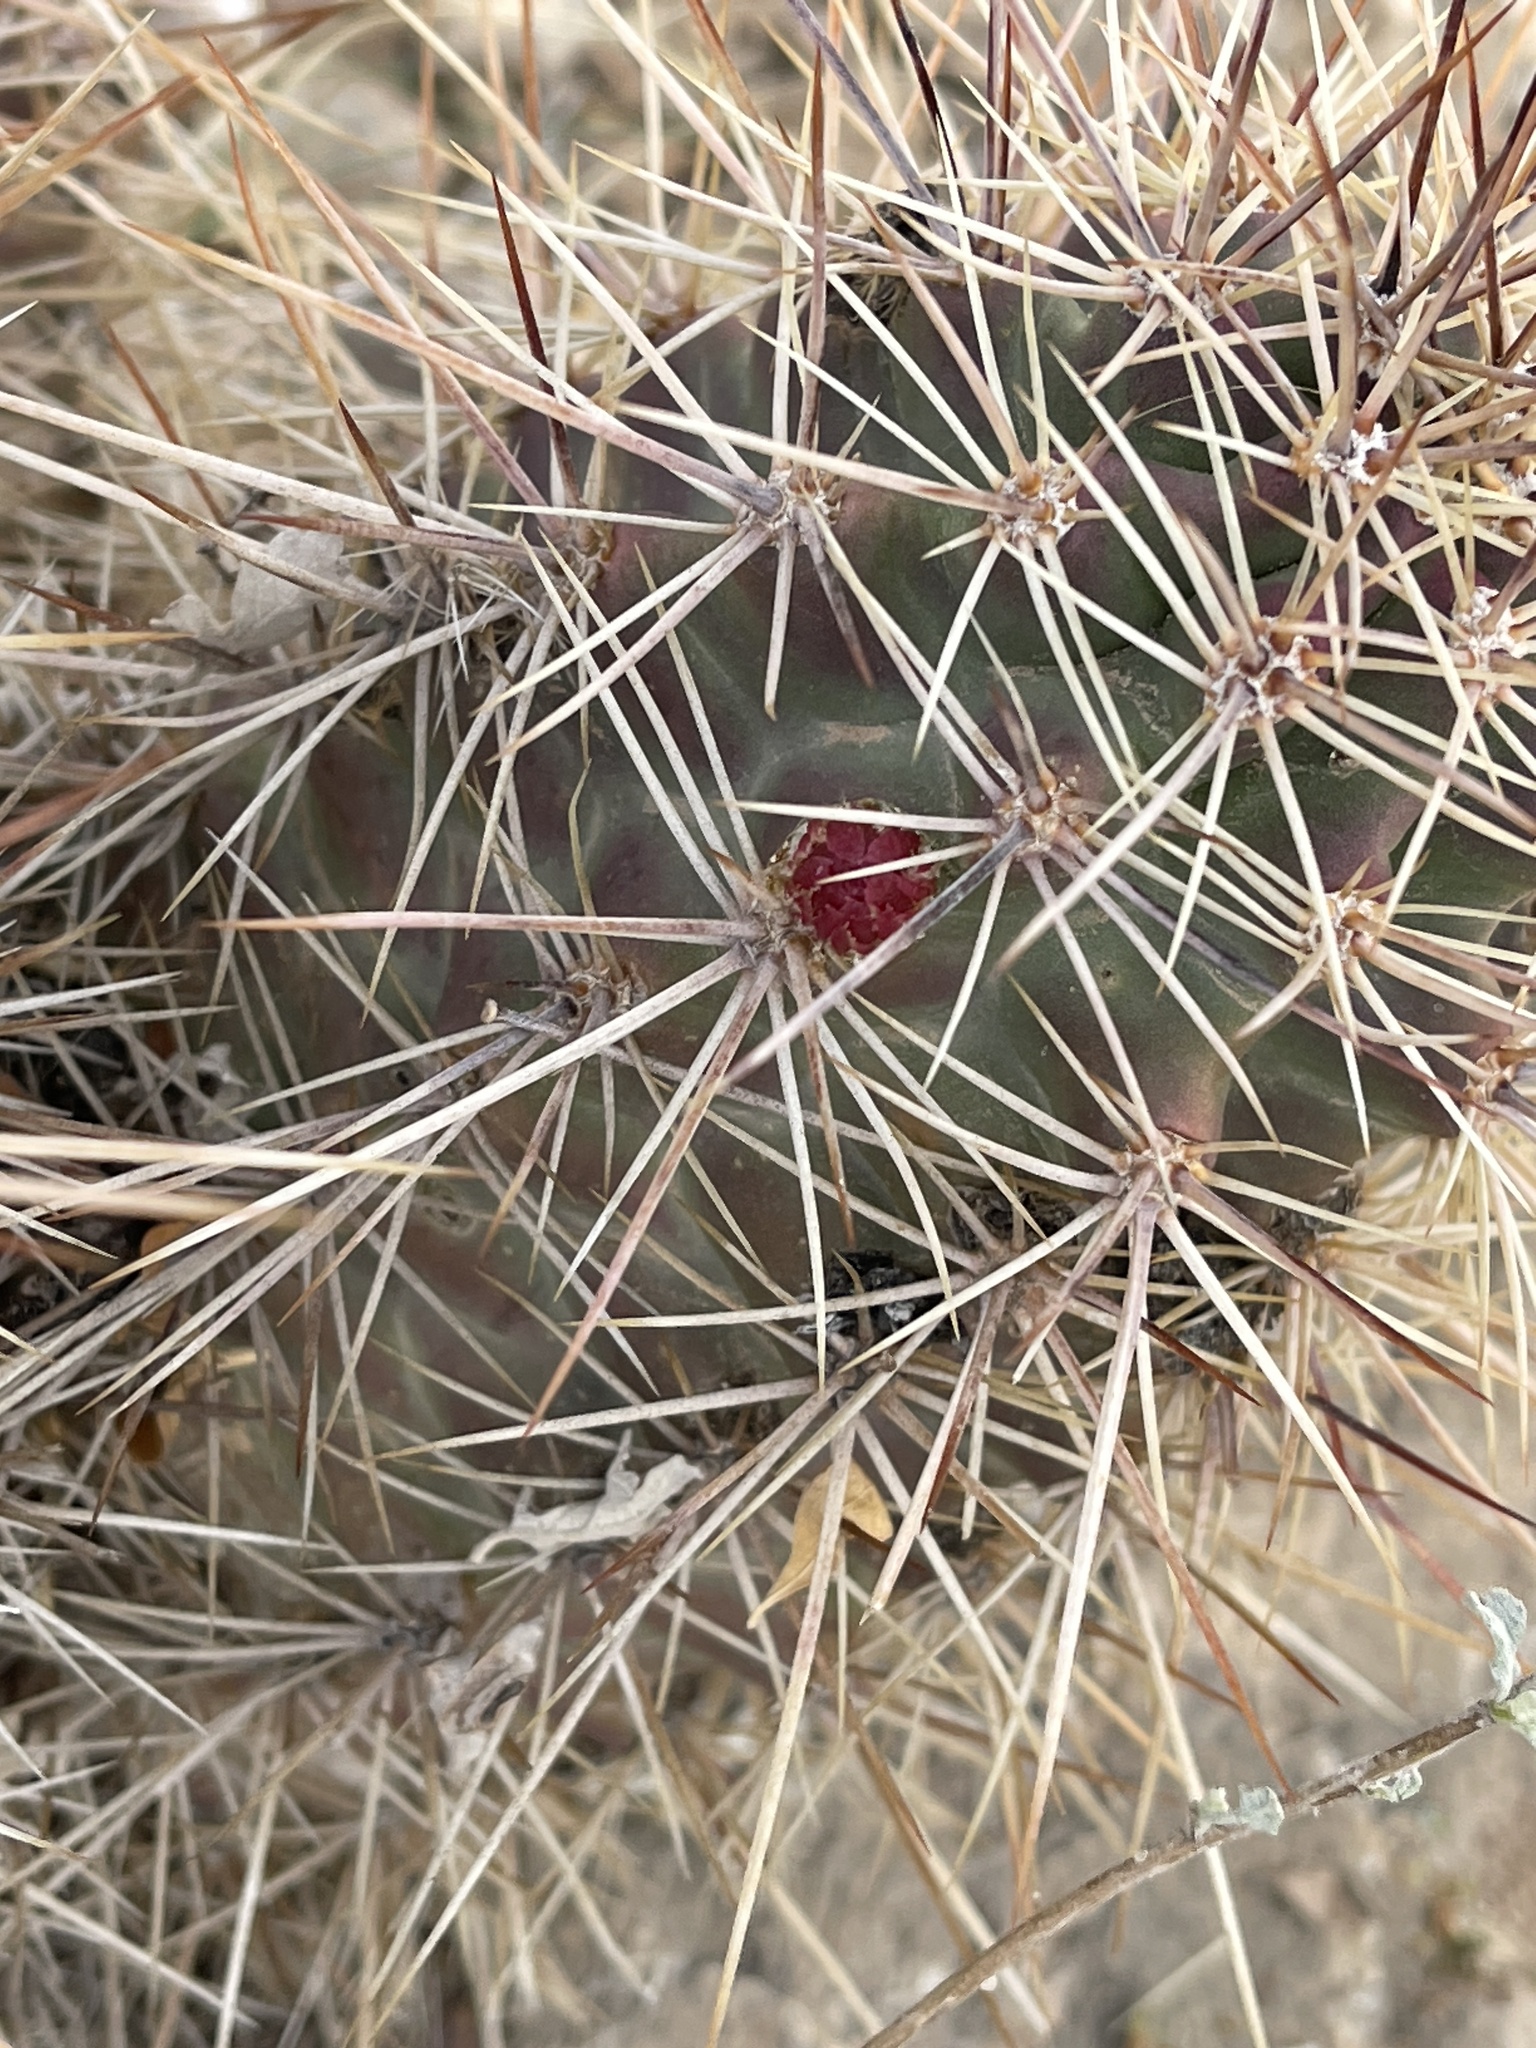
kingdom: Plantae
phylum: Tracheophyta
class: Magnoliopsida
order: Caryophyllales
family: Cactaceae
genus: Echinocereus
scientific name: Echinocereus coccineus
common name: Scarlet hedgehog cactus
